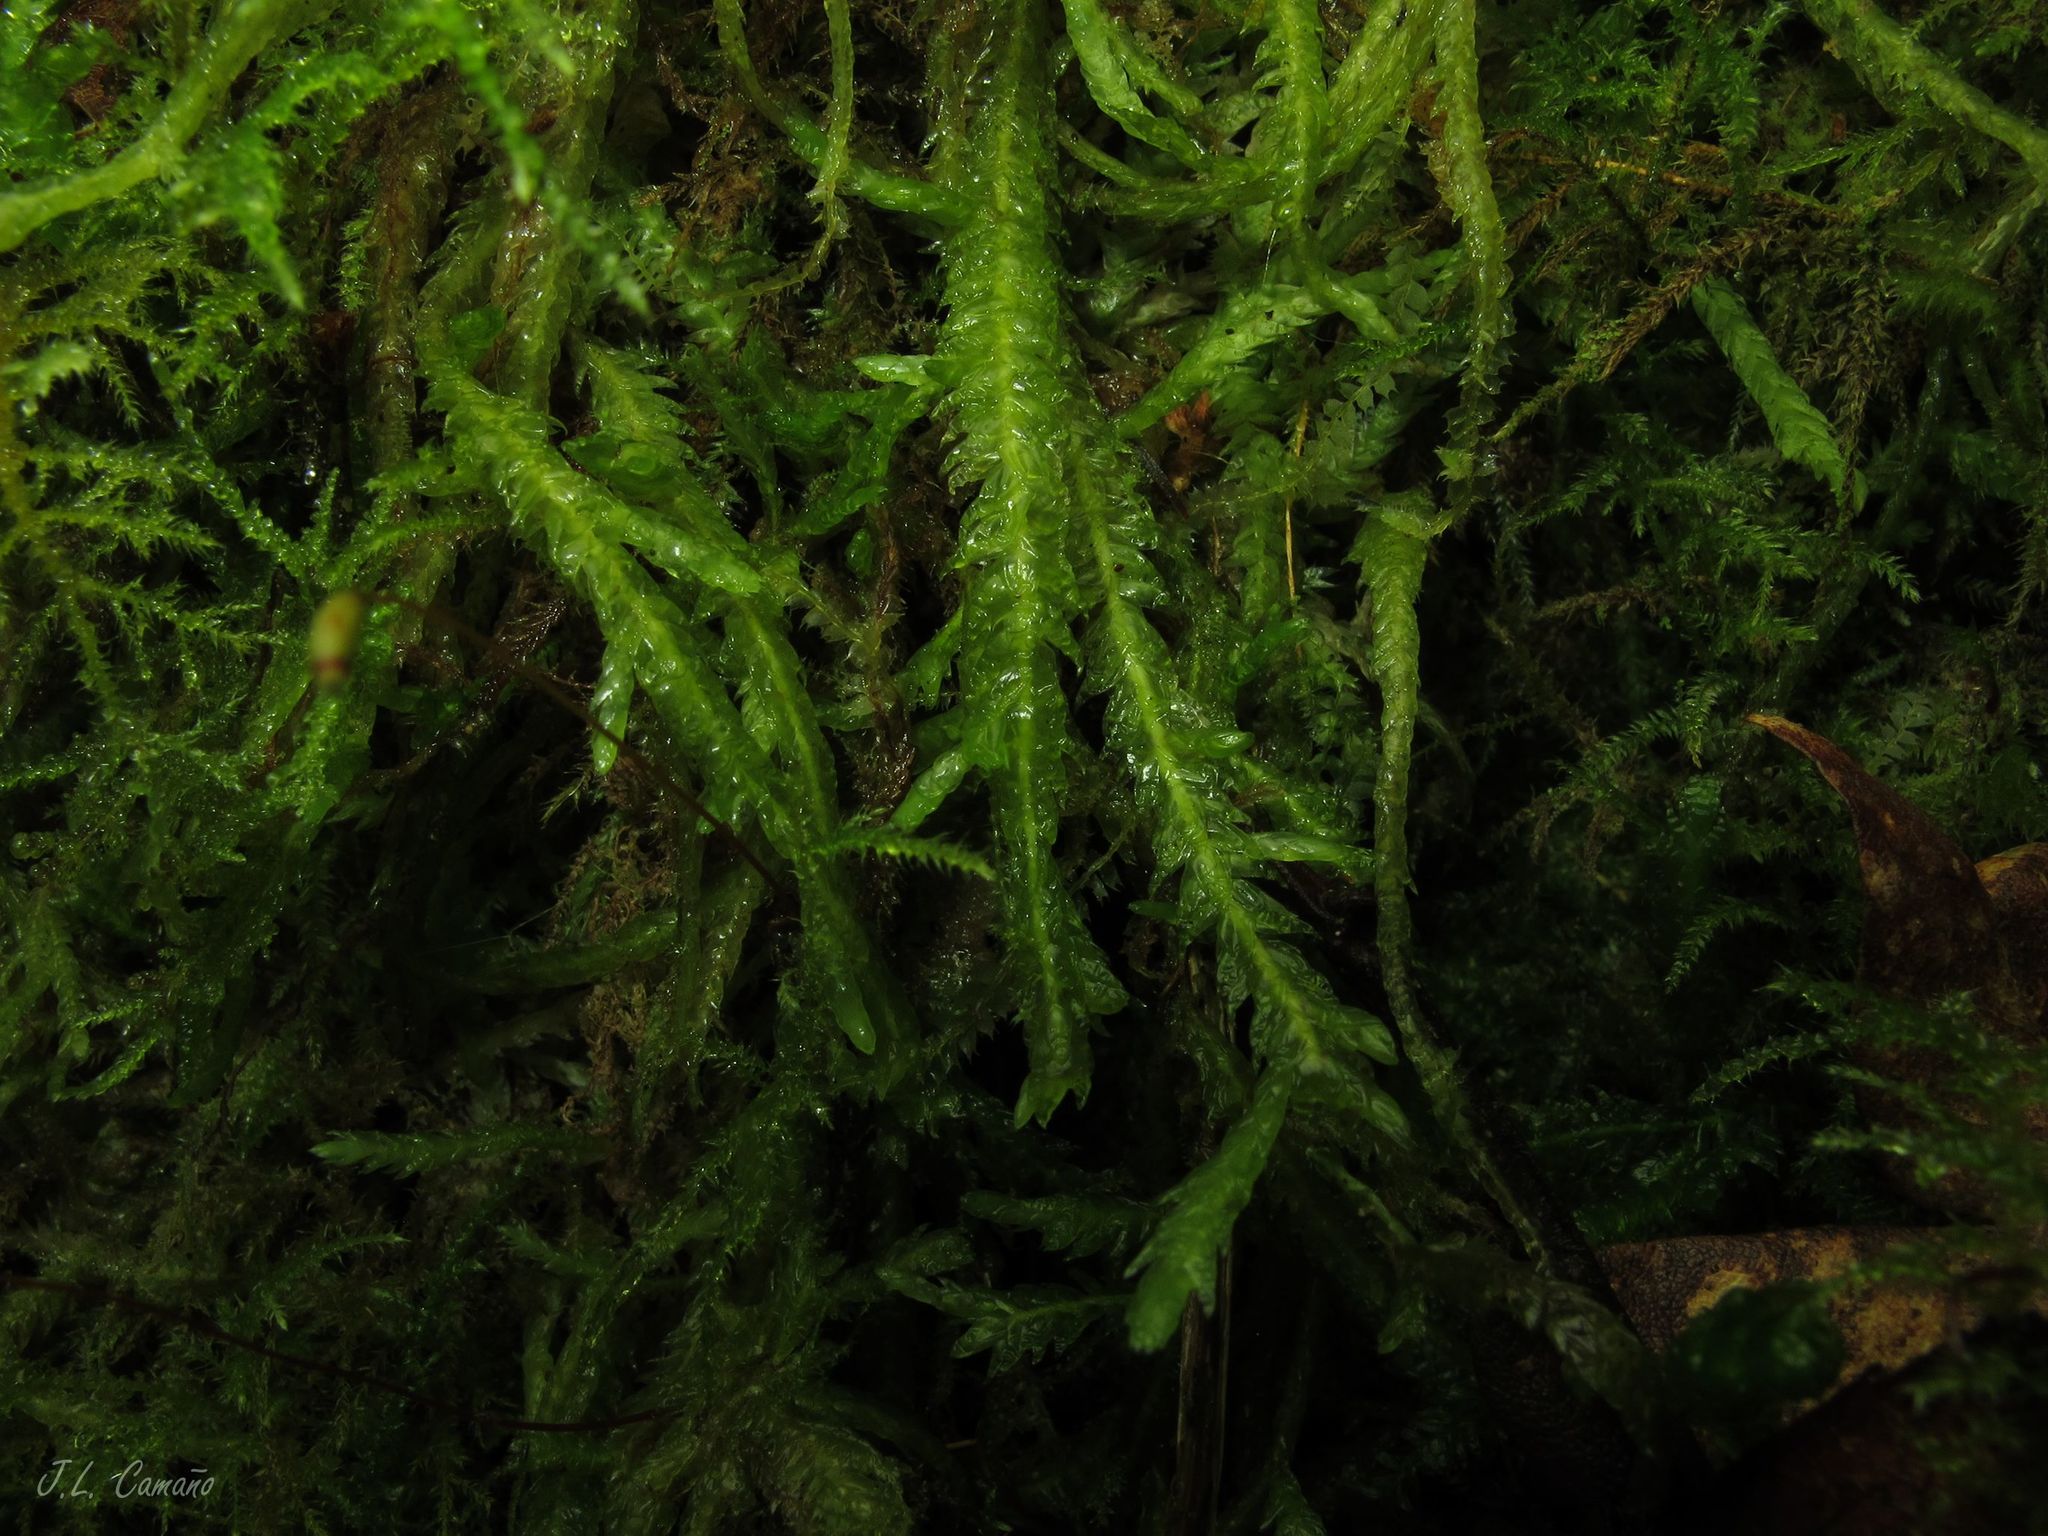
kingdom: Plantae
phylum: Bryophyta
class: Bryopsida
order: Hypnales
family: Plagiotheciaceae
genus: Plagiothecium
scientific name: Plagiothecium undulatum
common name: Waved silk-moss
